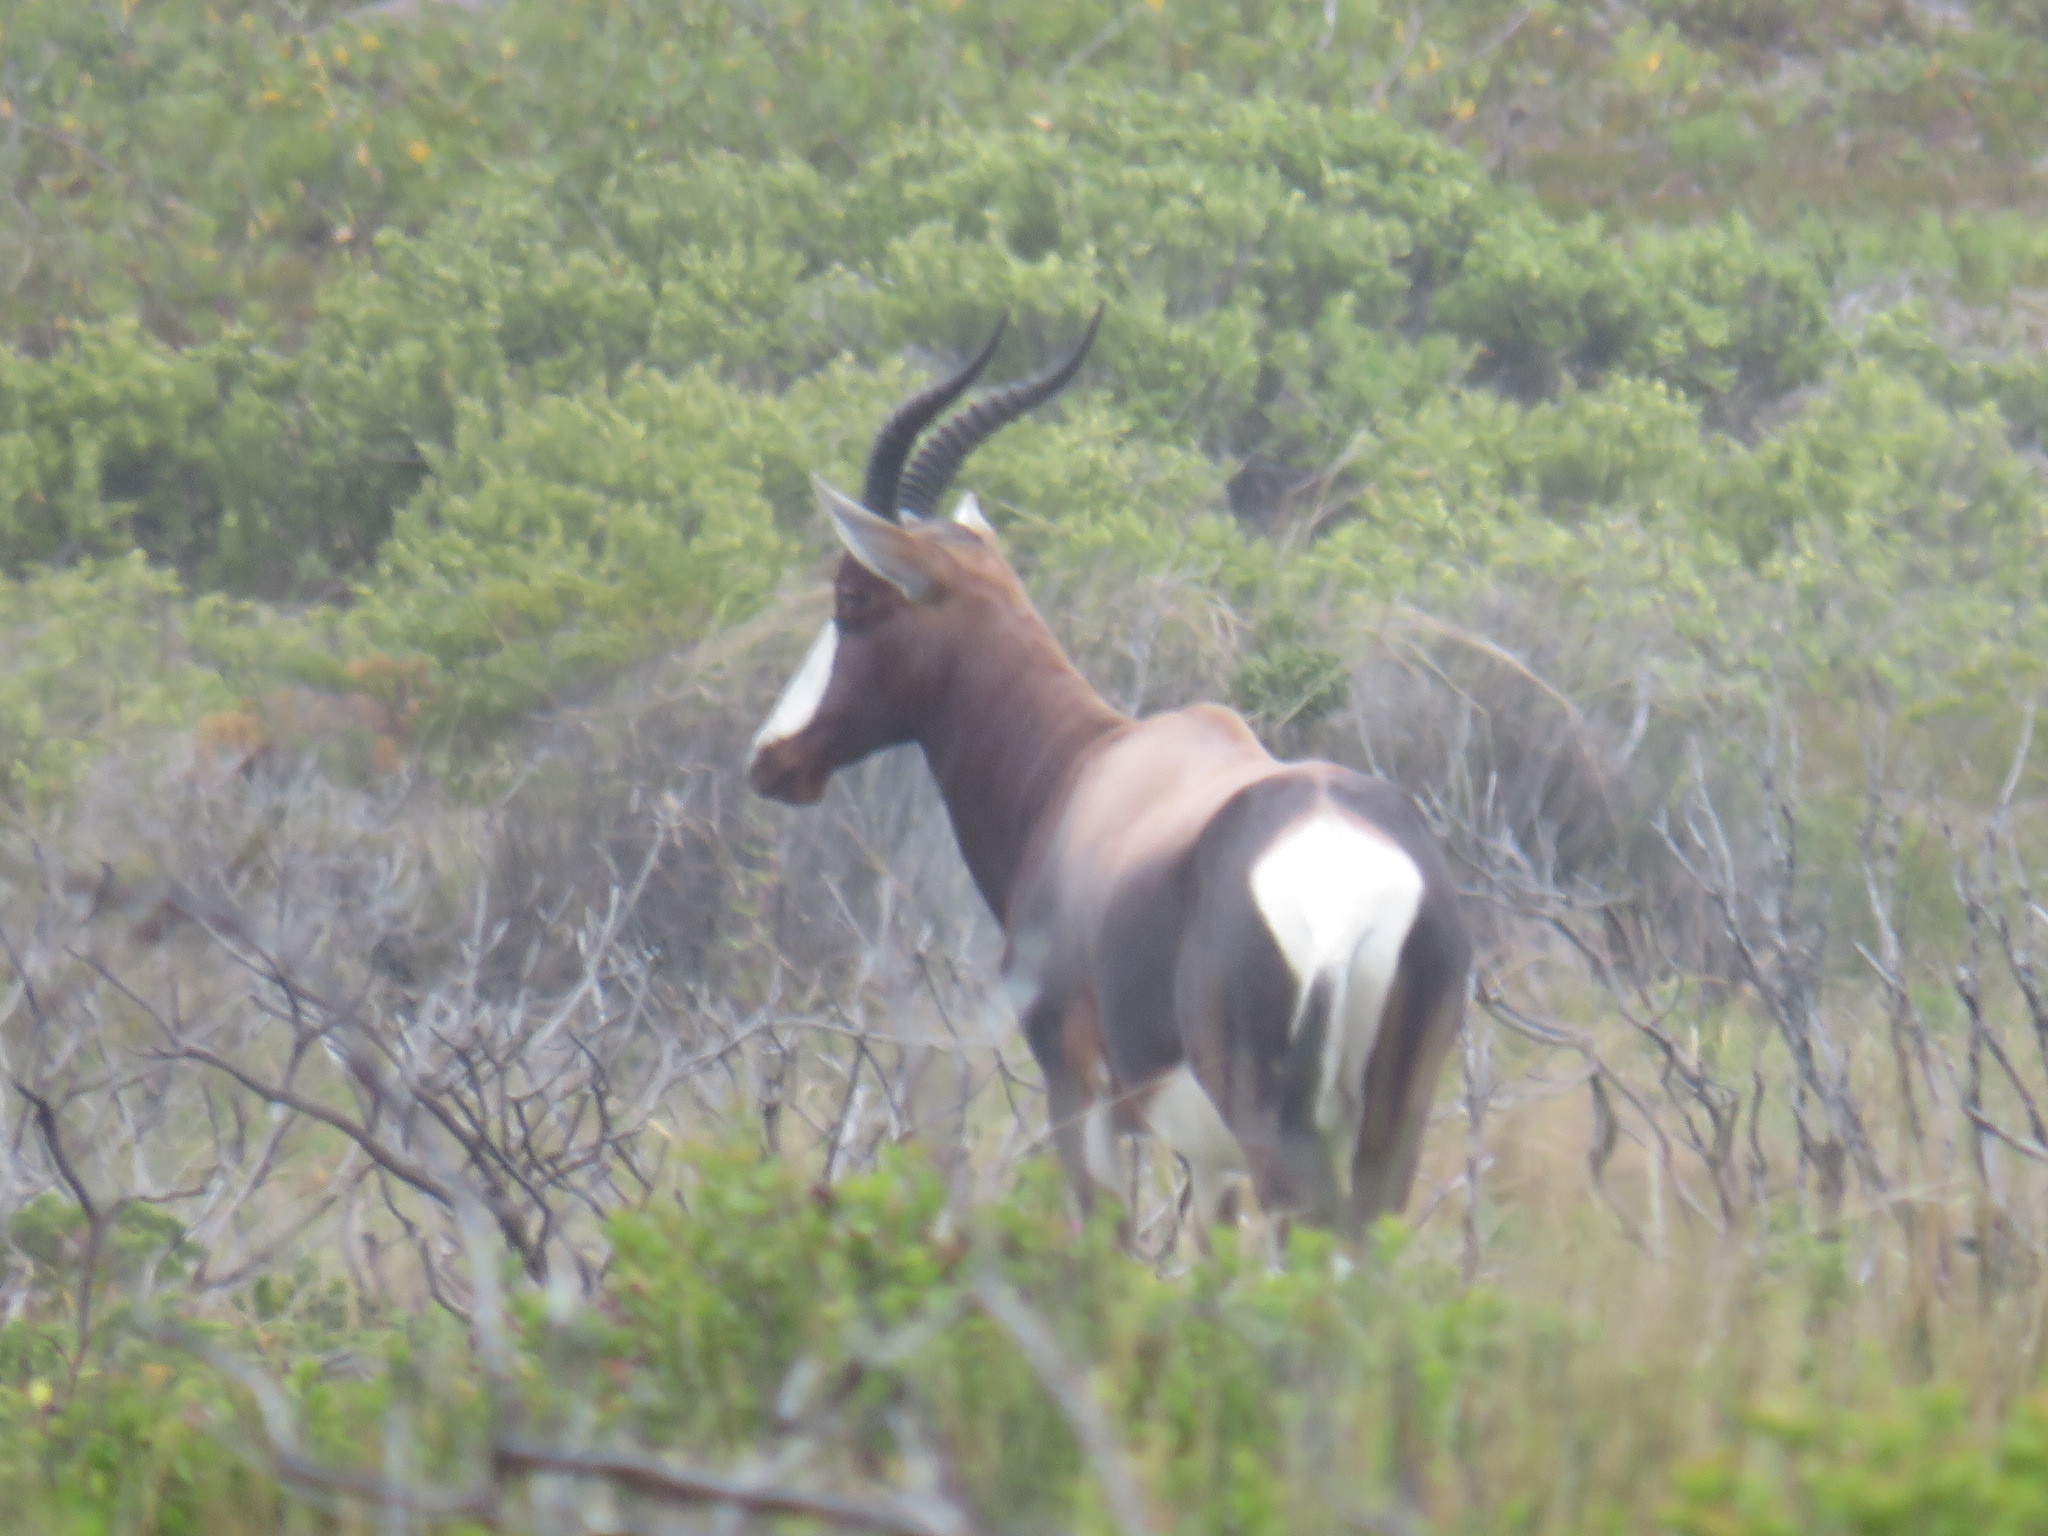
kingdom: Animalia
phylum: Chordata
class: Mammalia
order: Artiodactyla
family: Bovidae
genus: Damaliscus
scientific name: Damaliscus pygargus
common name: Bontebok
